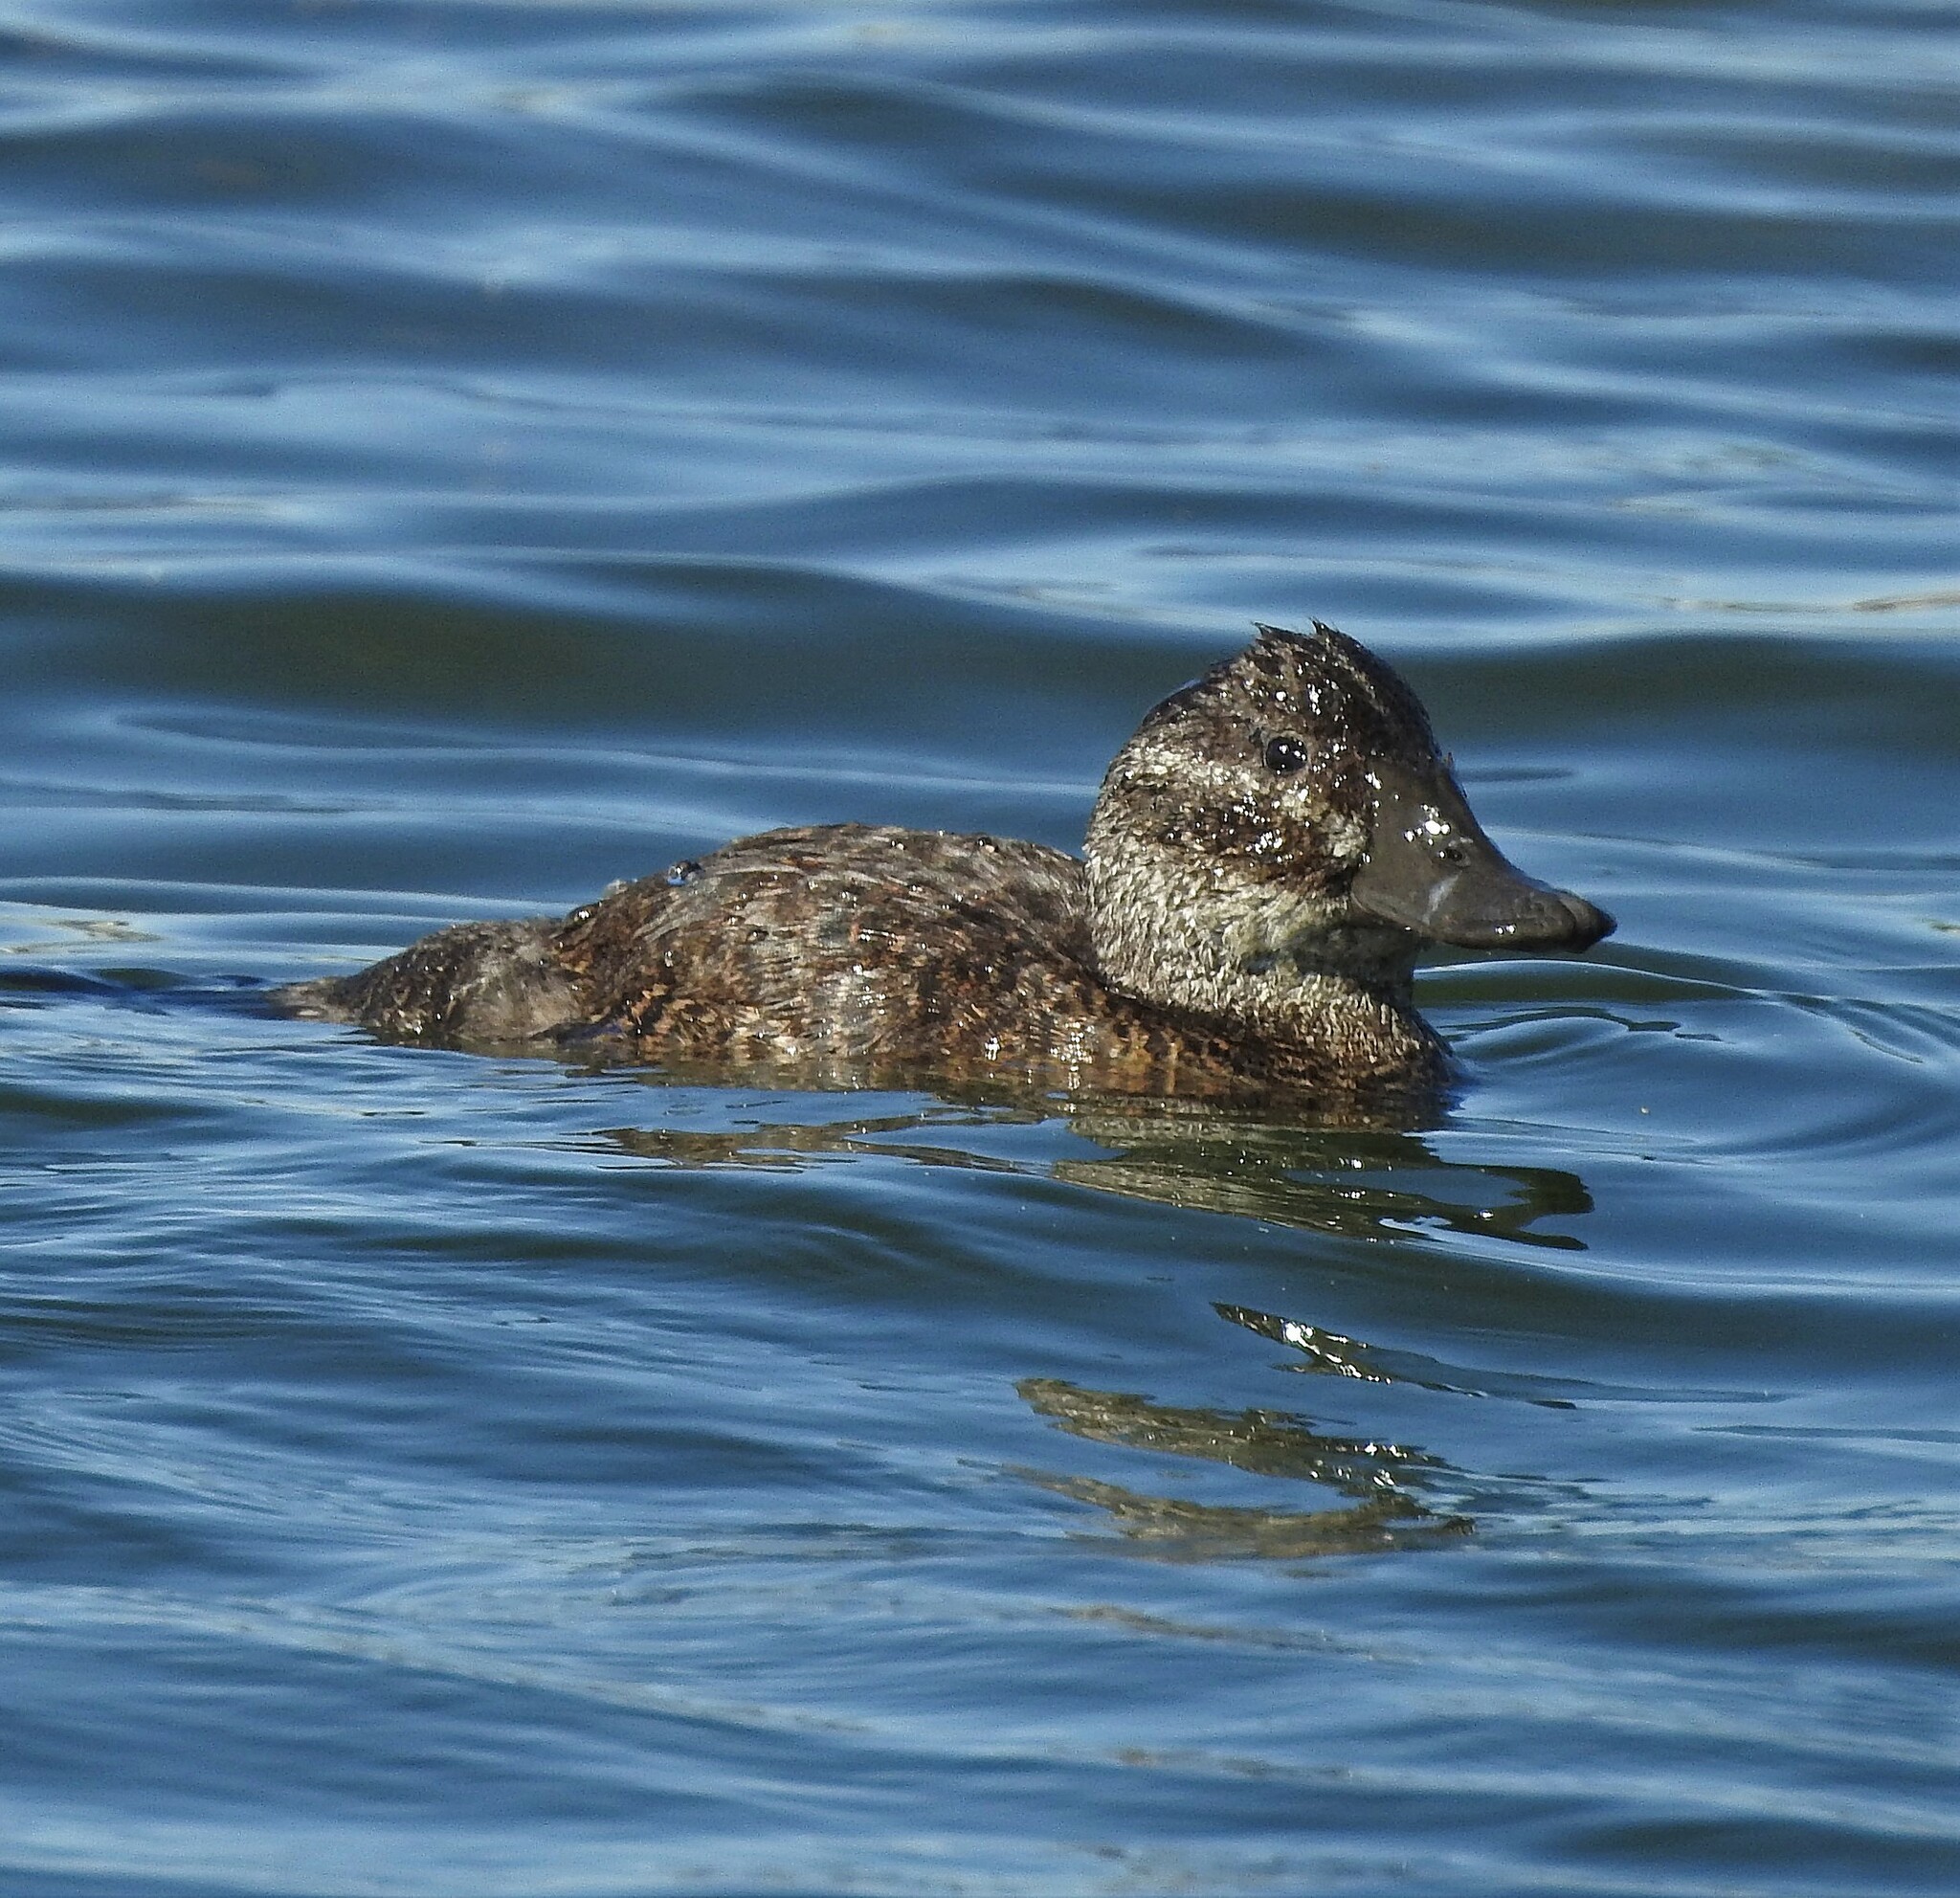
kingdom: Animalia
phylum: Chordata
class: Aves
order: Anseriformes
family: Anatidae
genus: Oxyura
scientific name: Oxyura vittata
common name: Lake duck
